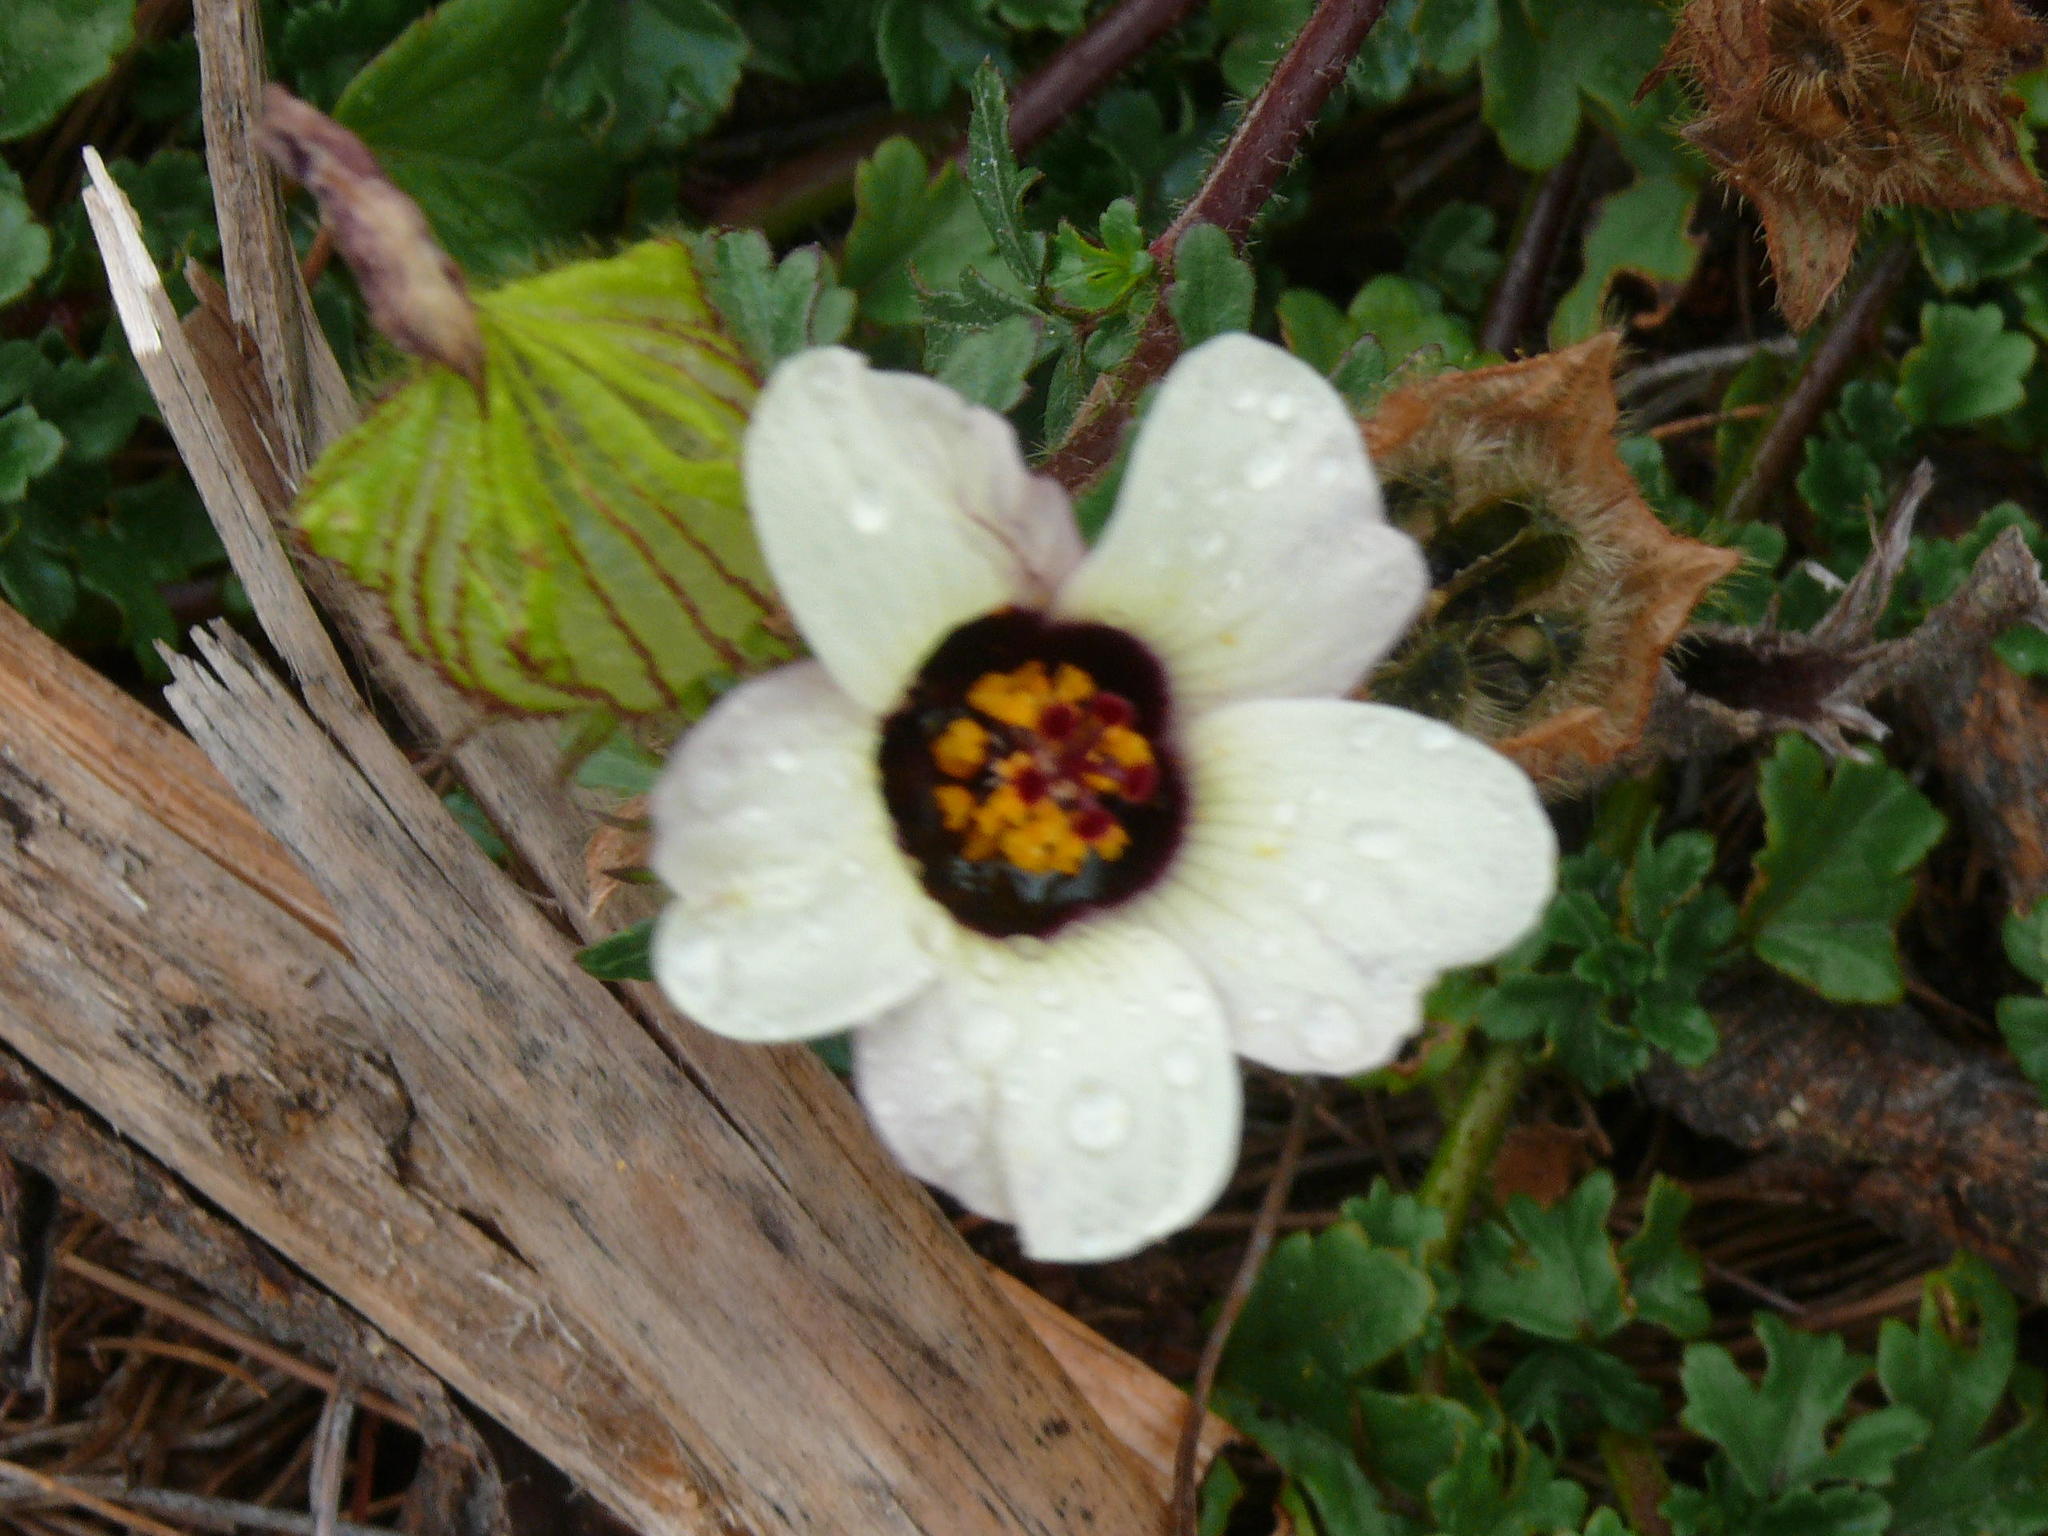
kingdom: Plantae
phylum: Tracheophyta
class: Magnoliopsida
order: Malvales
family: Malvaceae
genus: Hibiscus
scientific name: Hibiscus trionum
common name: Bladder ketmia
